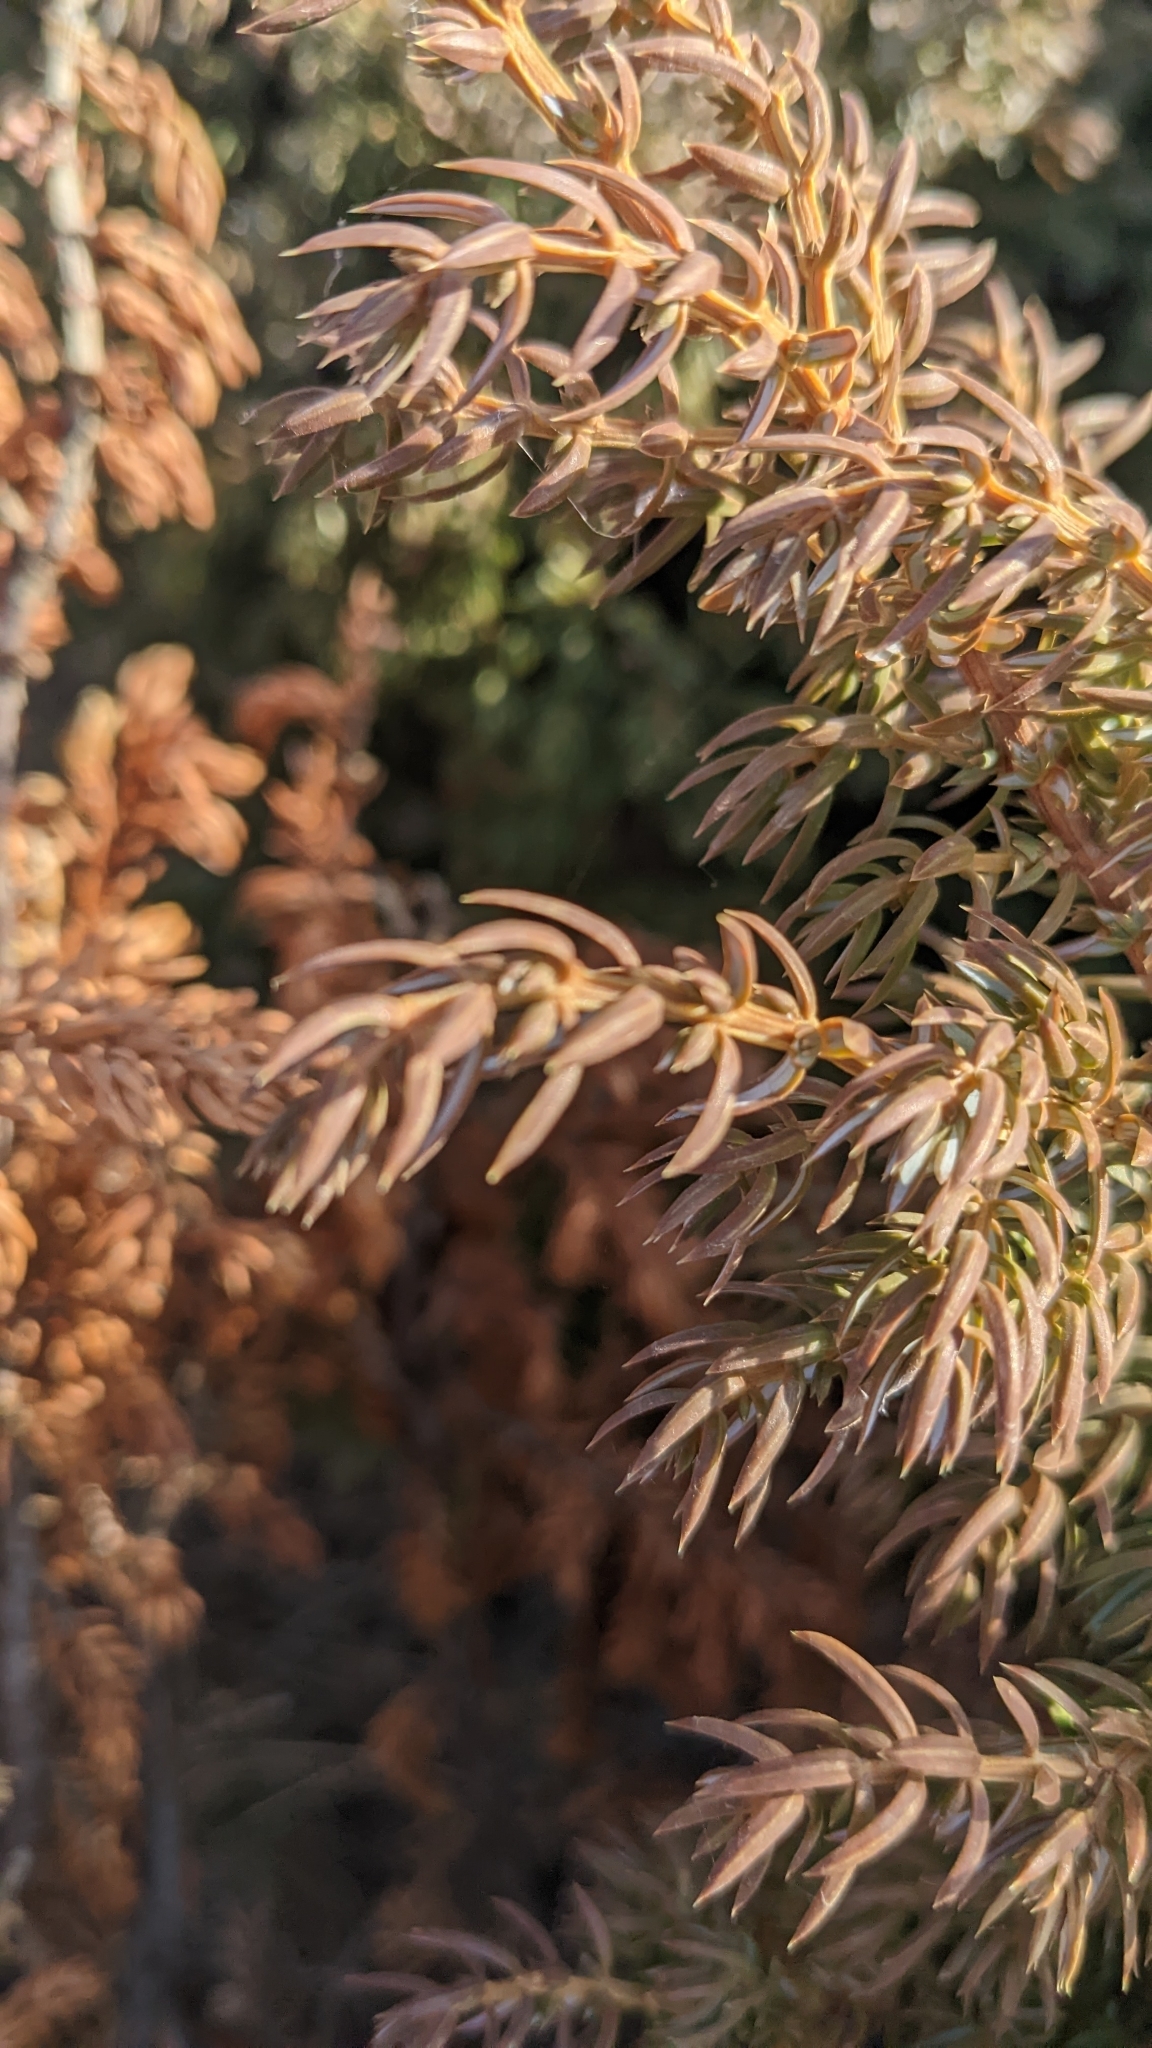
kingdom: Plantae
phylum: Tracheophyta
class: Pinopsida
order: Pinales
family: Cupressaceae
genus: Juniperus
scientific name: Juniperus communis
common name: Common juniper
